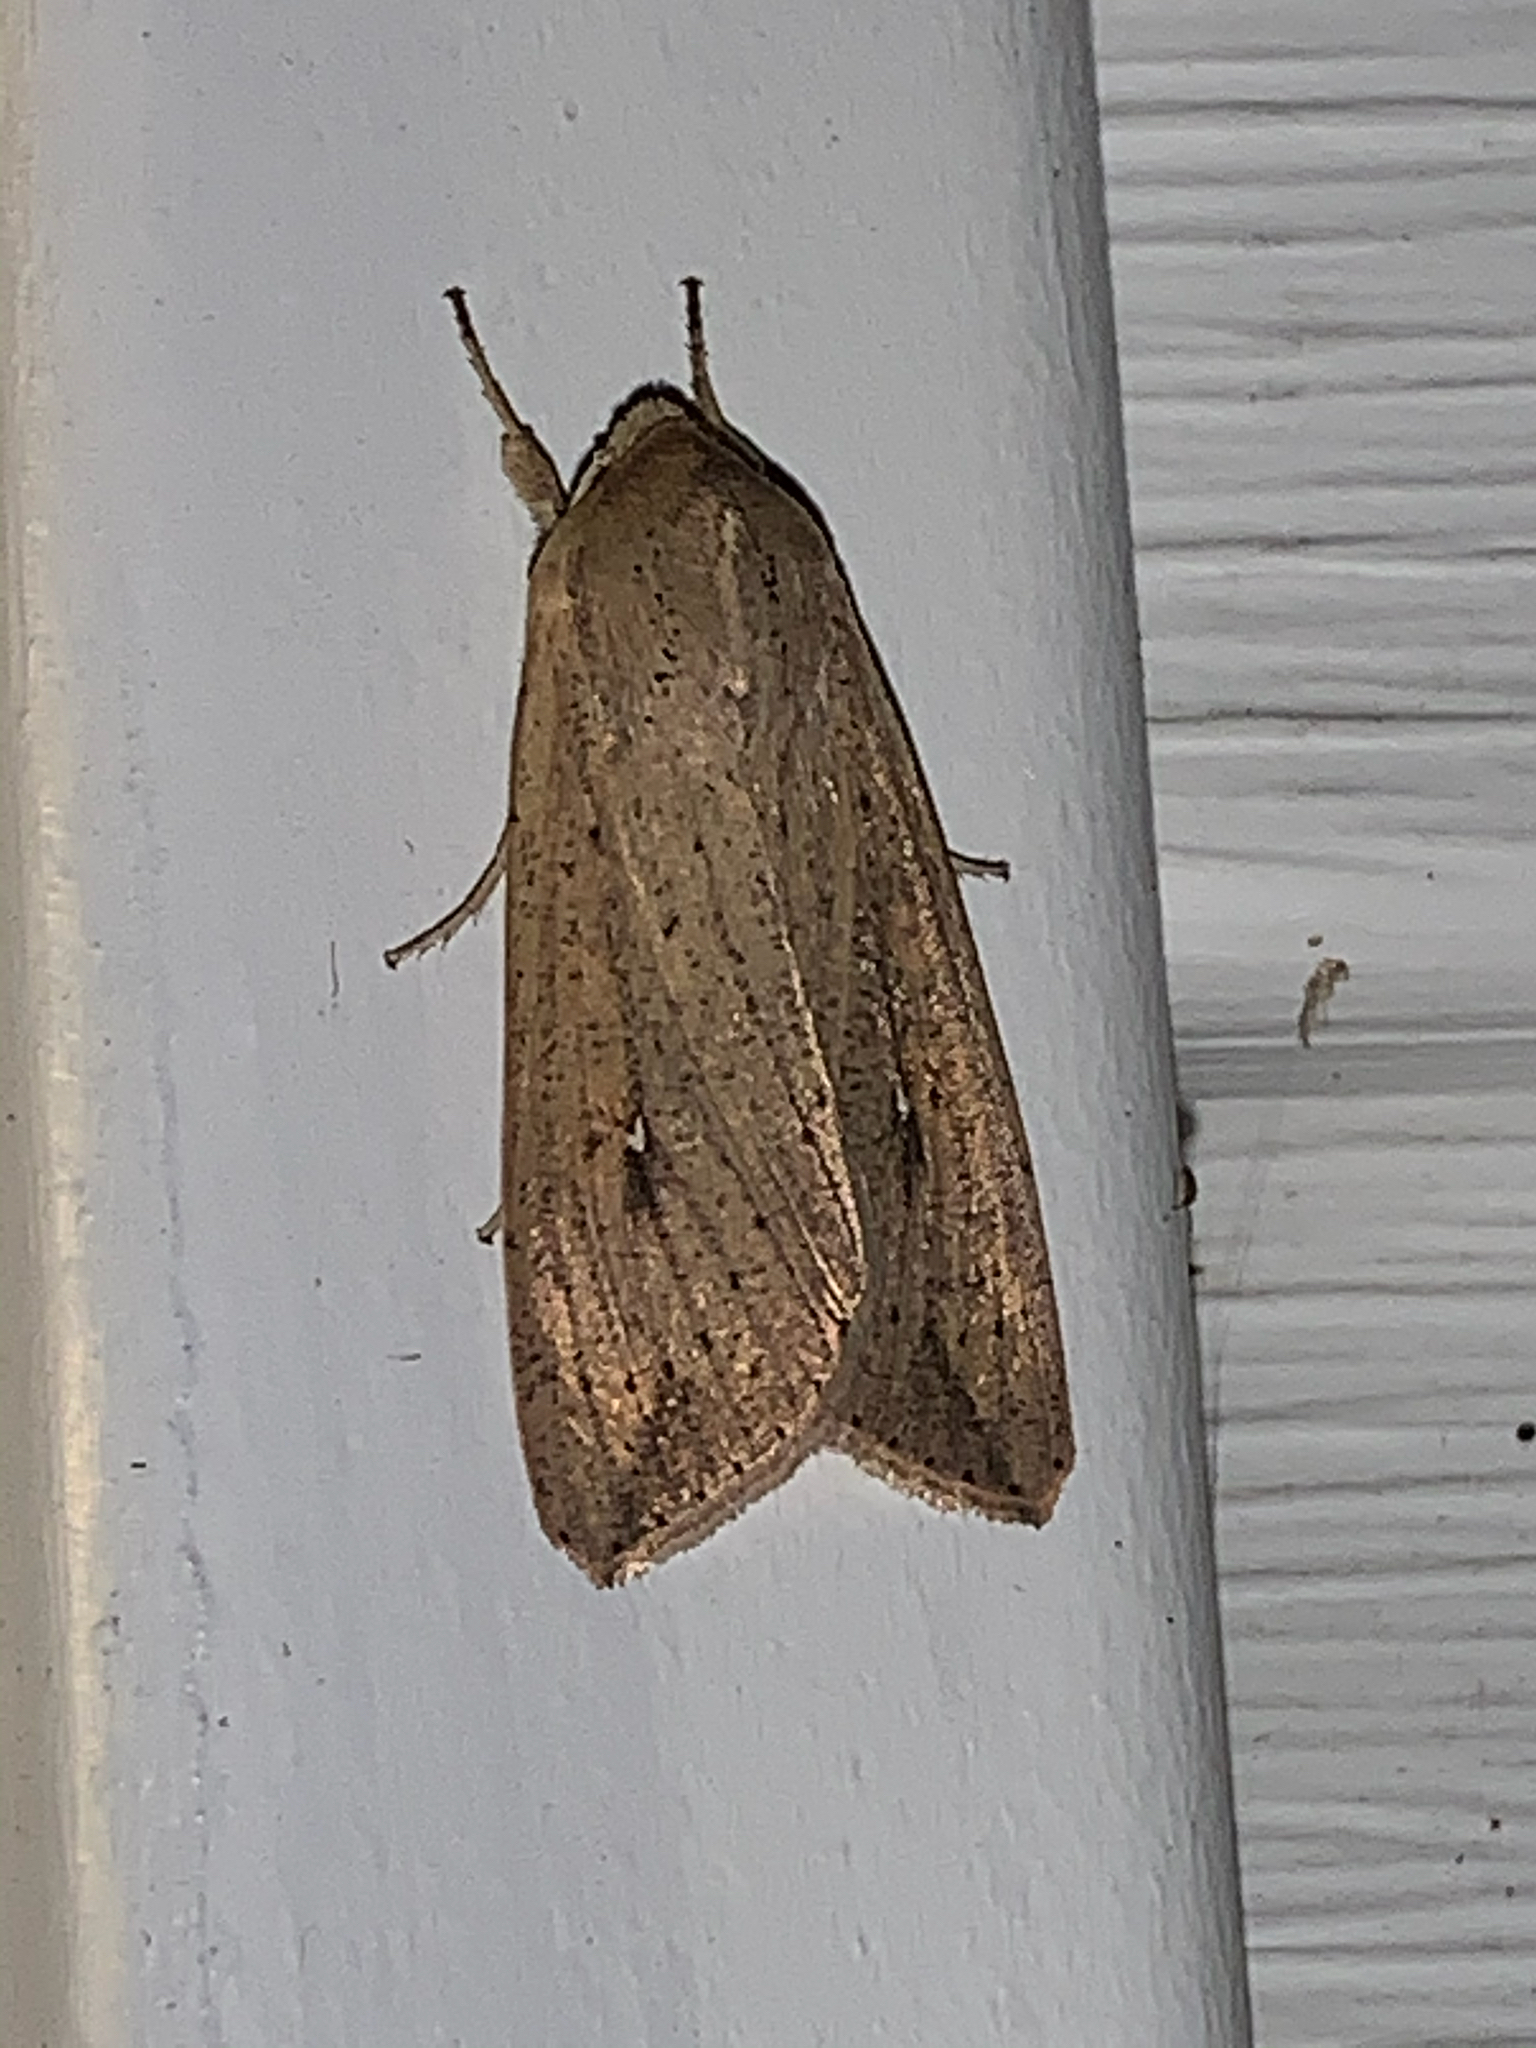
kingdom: Animalia
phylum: Arthropoda
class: Insecta
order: Lepidoptera
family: Noctuidae
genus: Mythimna
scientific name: Mythimna unipuncta
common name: White-speck
